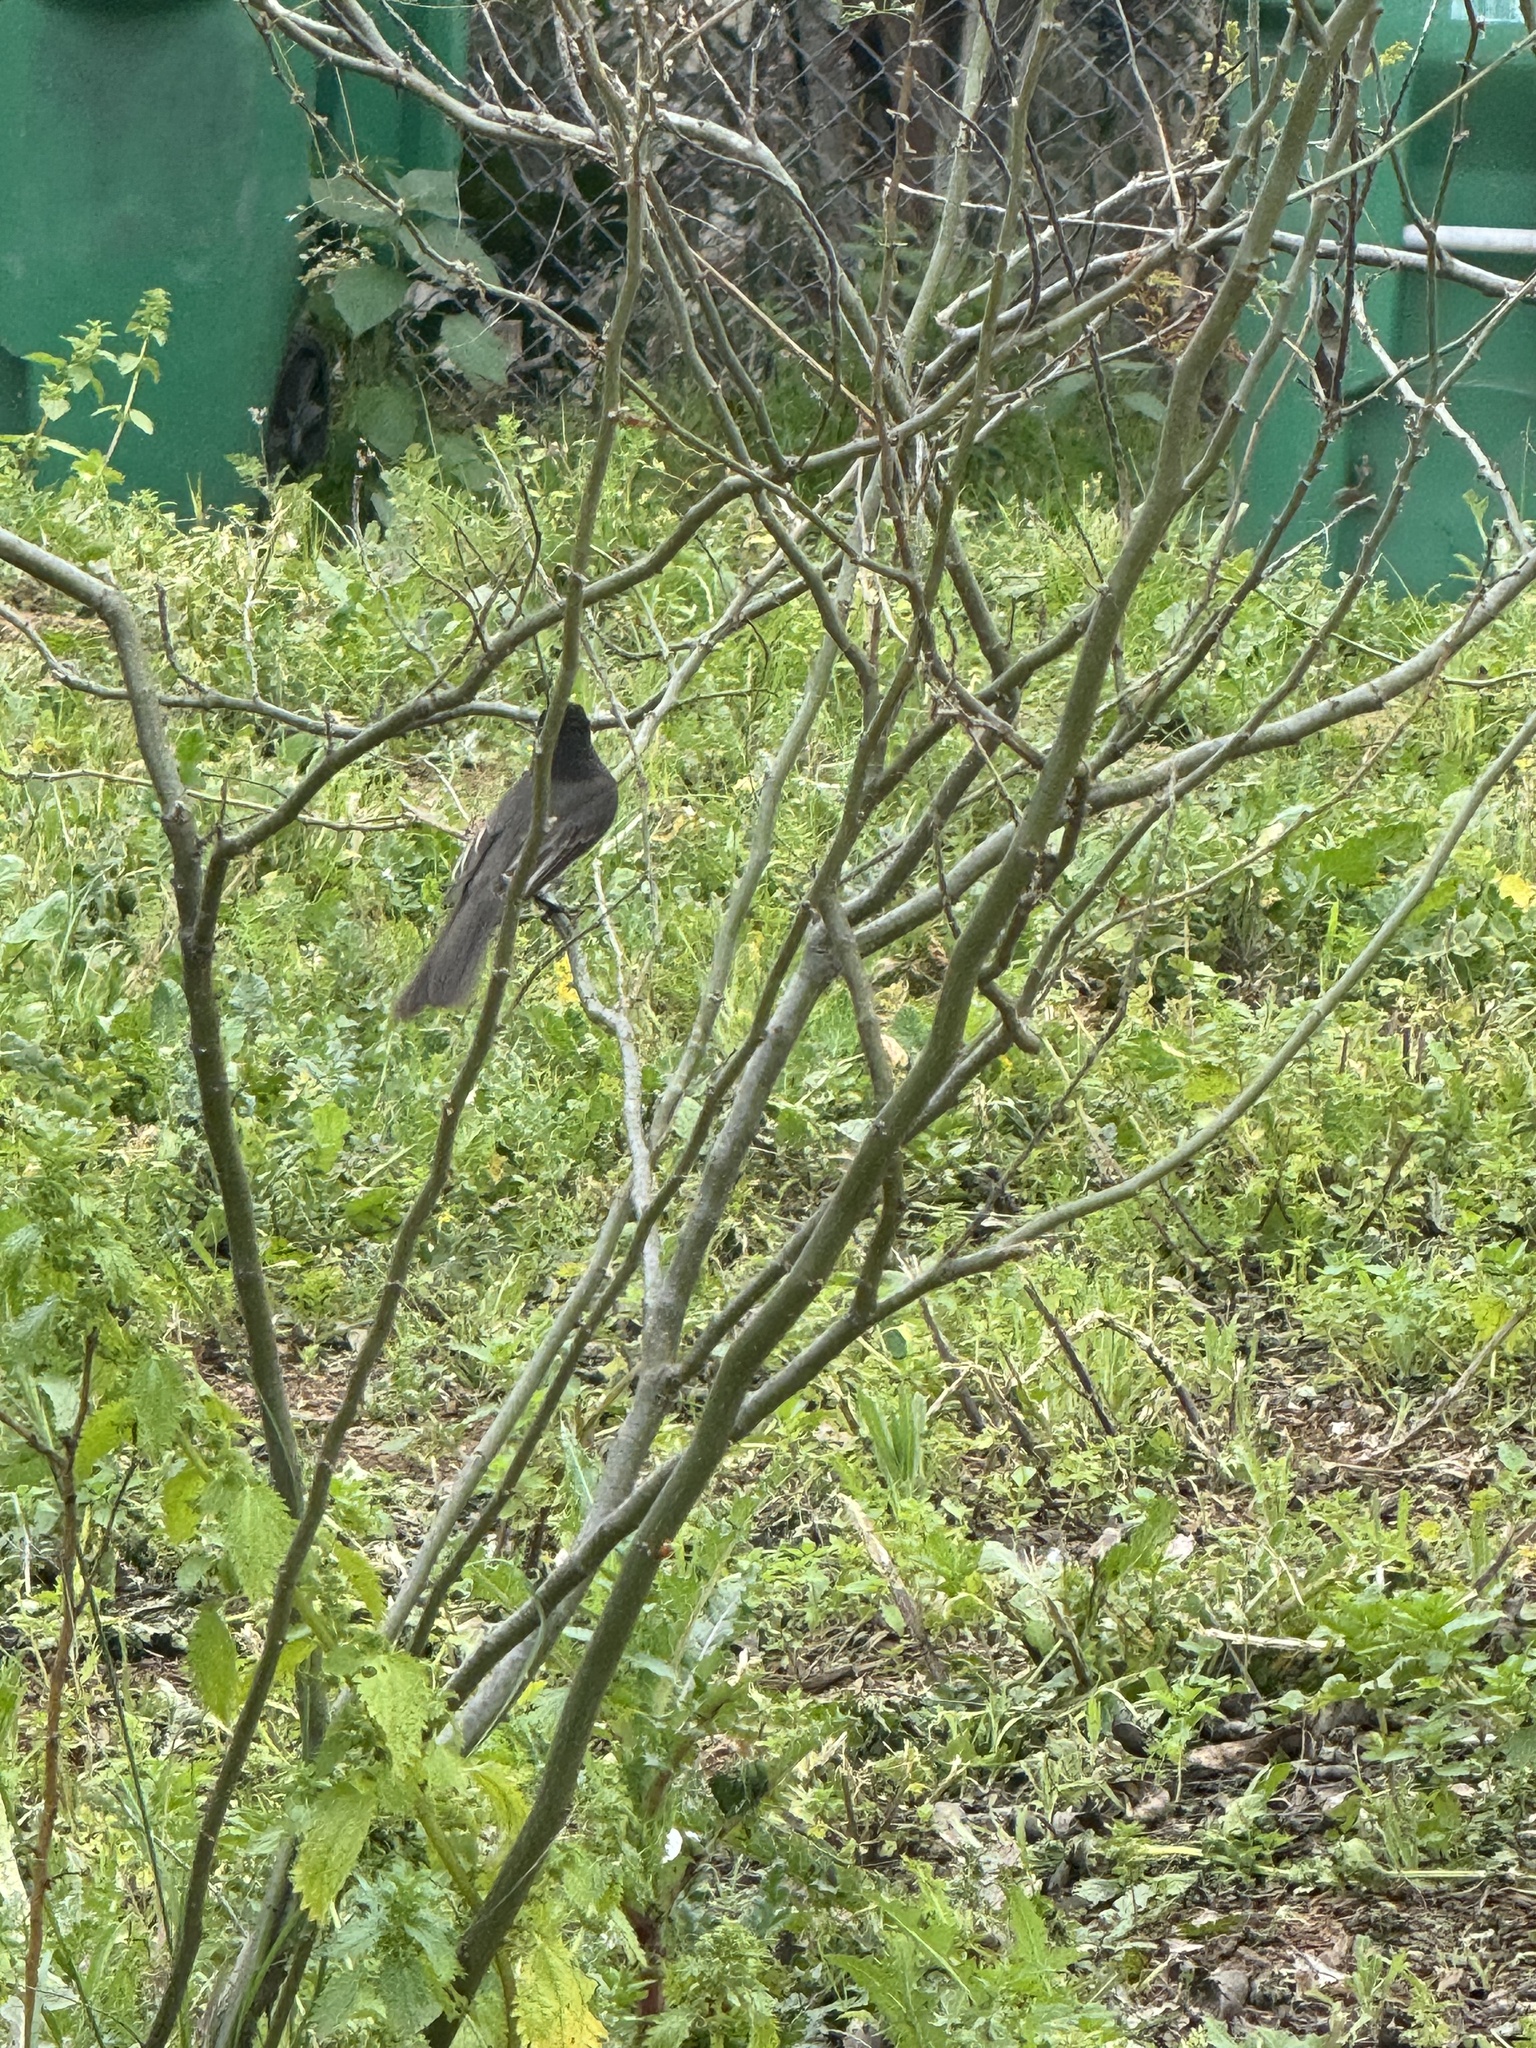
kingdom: Animalia
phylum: Chordata
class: Aves
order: Passeriformes
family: Tyrannidae
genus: Sayornis
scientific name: Sayornis nigricans
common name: Black phoebe
